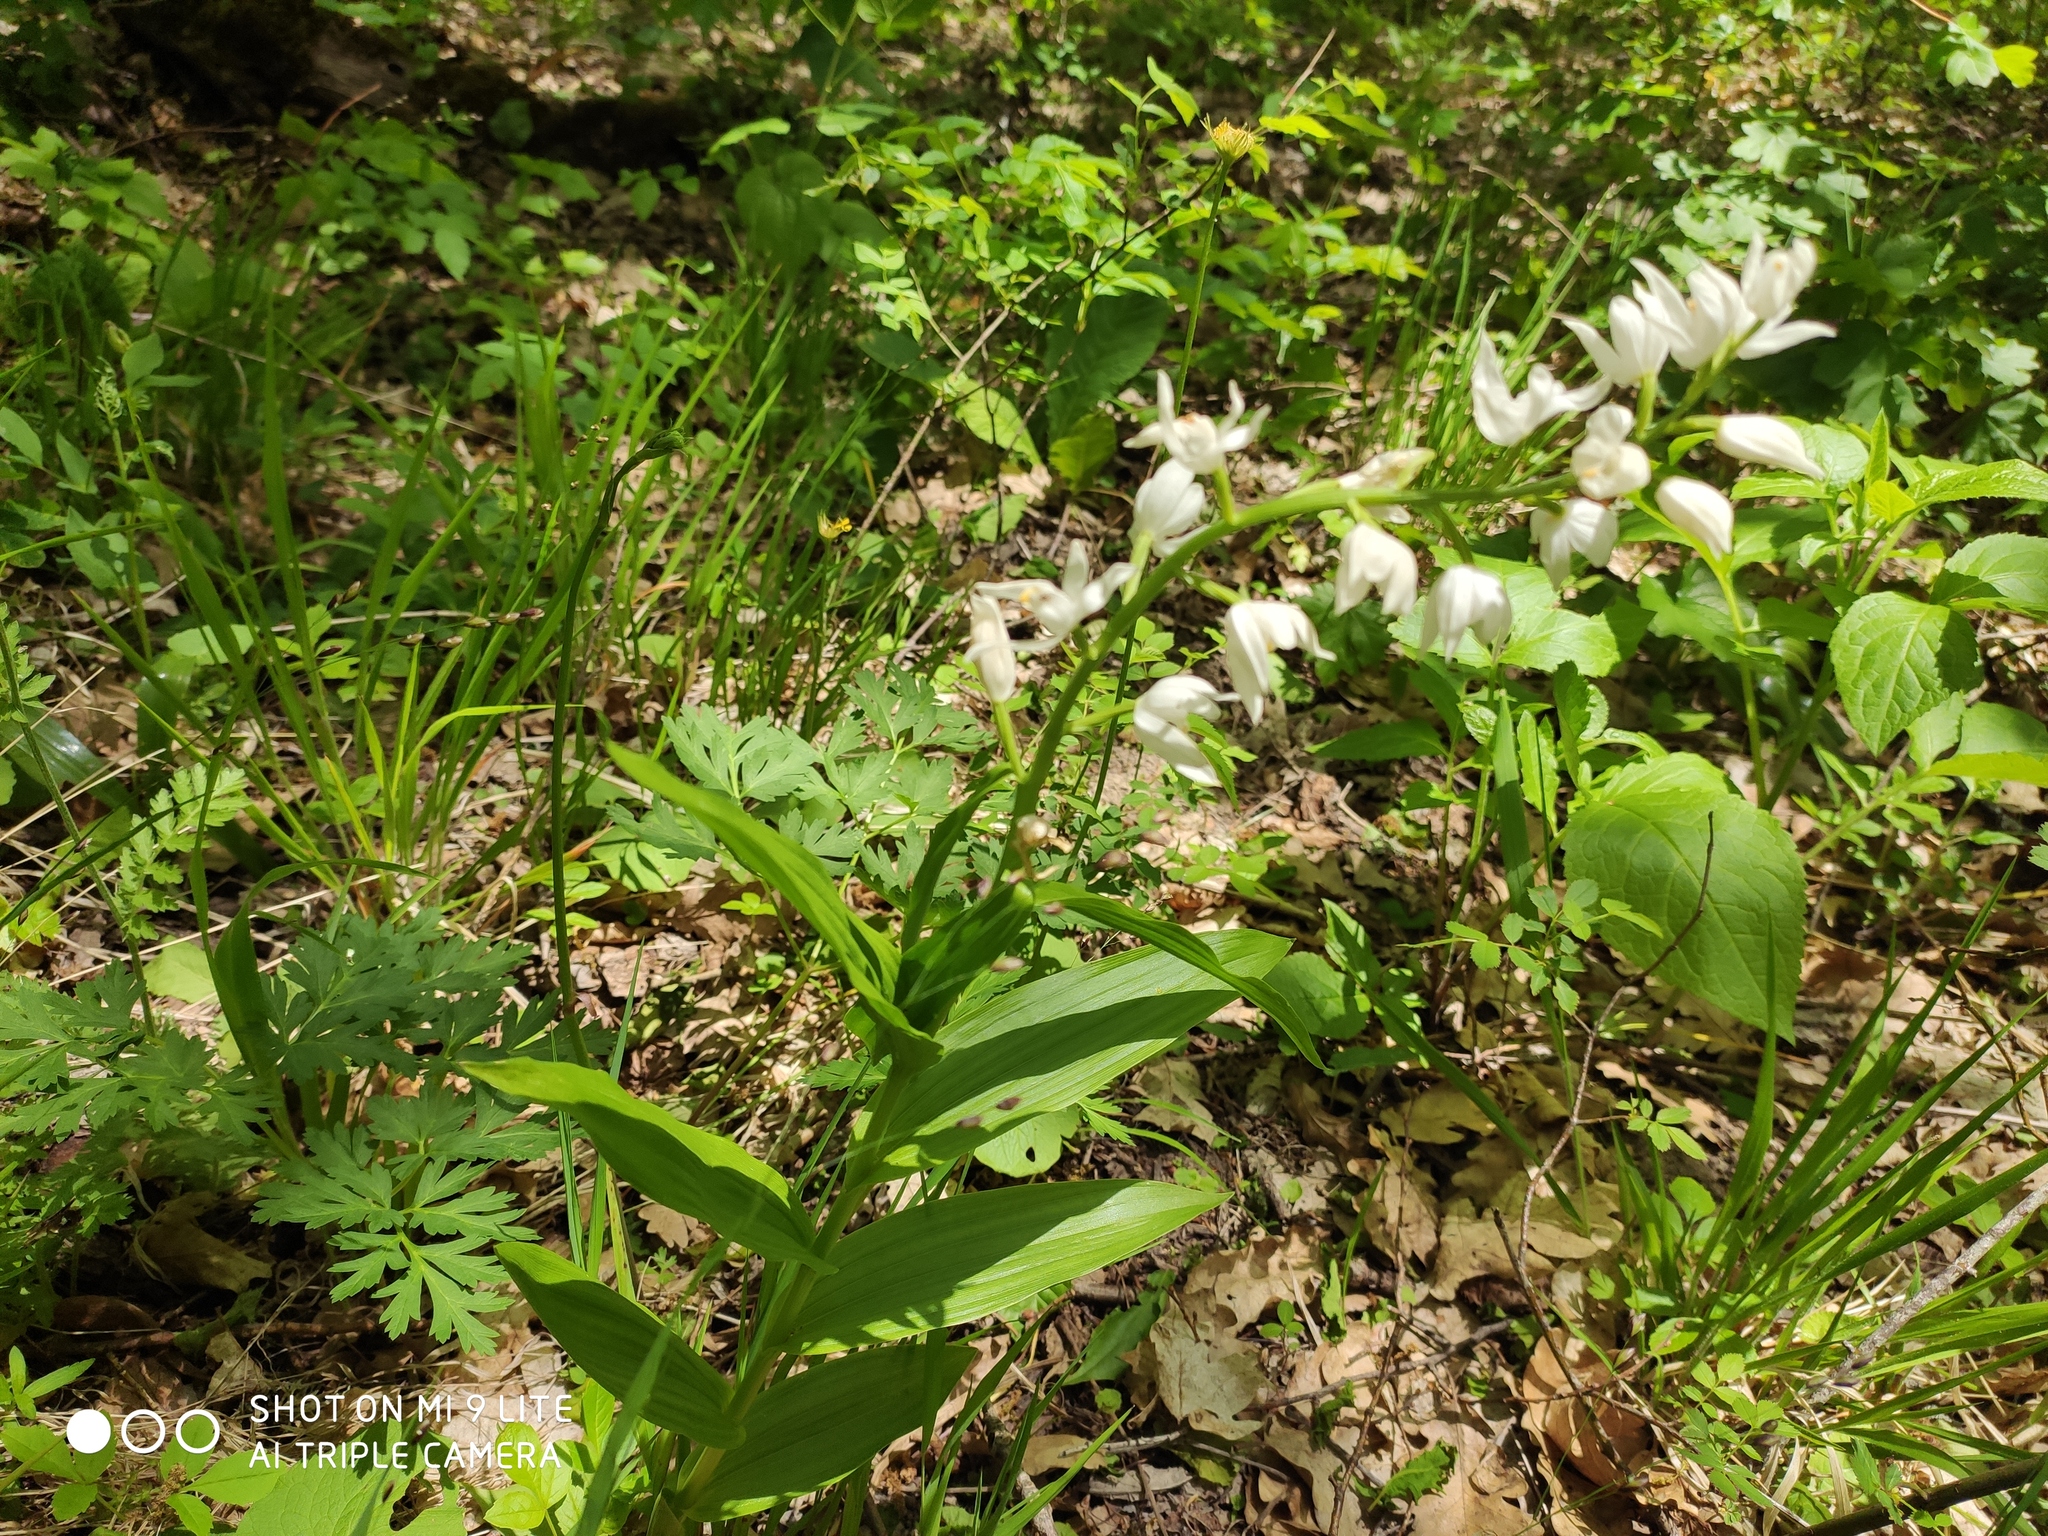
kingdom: Plantae
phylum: Tracheophyta
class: Liliopsida
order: Asparagales
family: Orchidaceae
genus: Cephalanthera
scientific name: Cephalanthera longifolia
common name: Narrow-leaved helleborine
